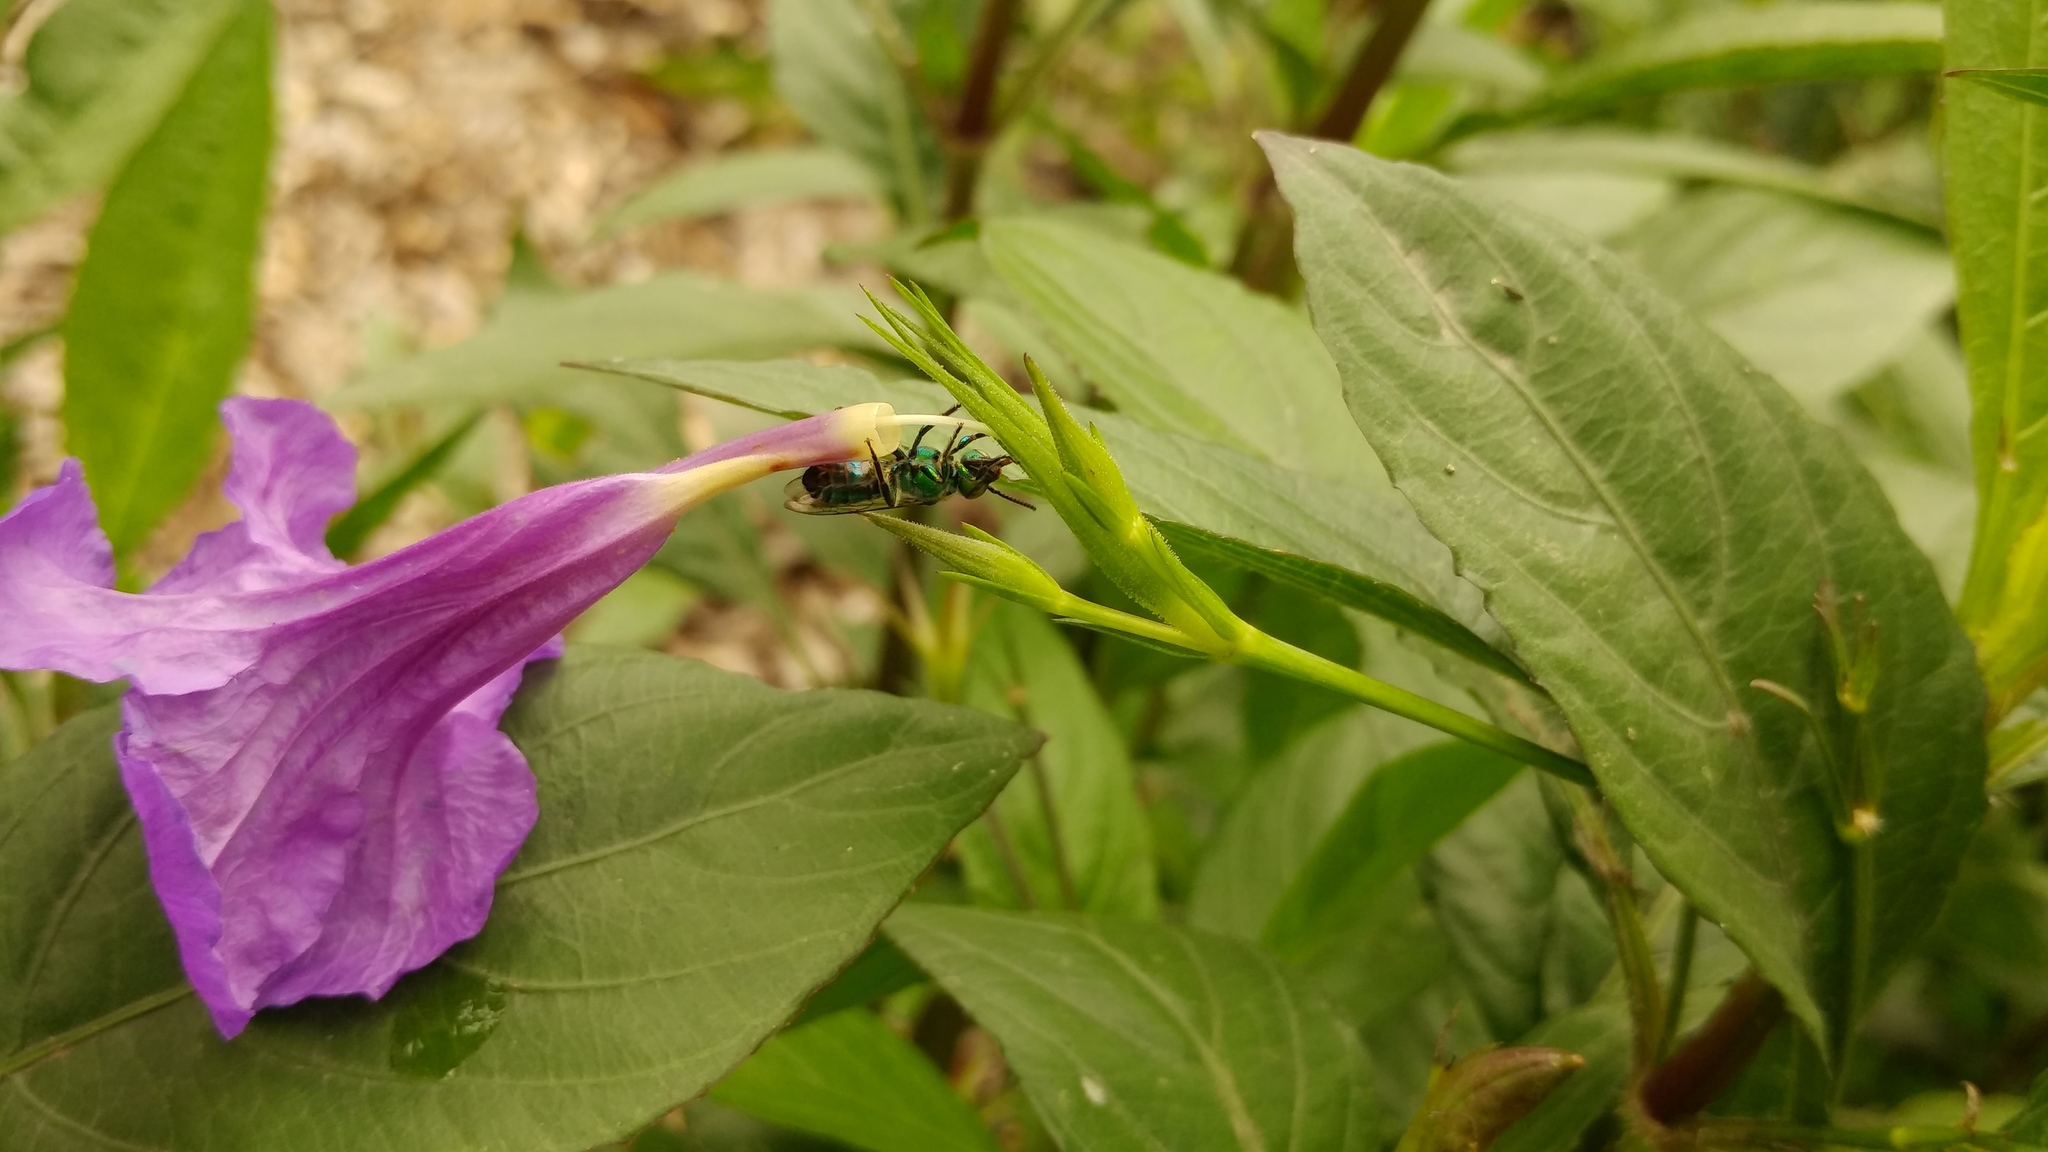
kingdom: Animalia
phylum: Arthropoda
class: Insecta
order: Hymenoptera
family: Halictidae
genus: Pseudaugochlora
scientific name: Pseudaugochlora graminea
